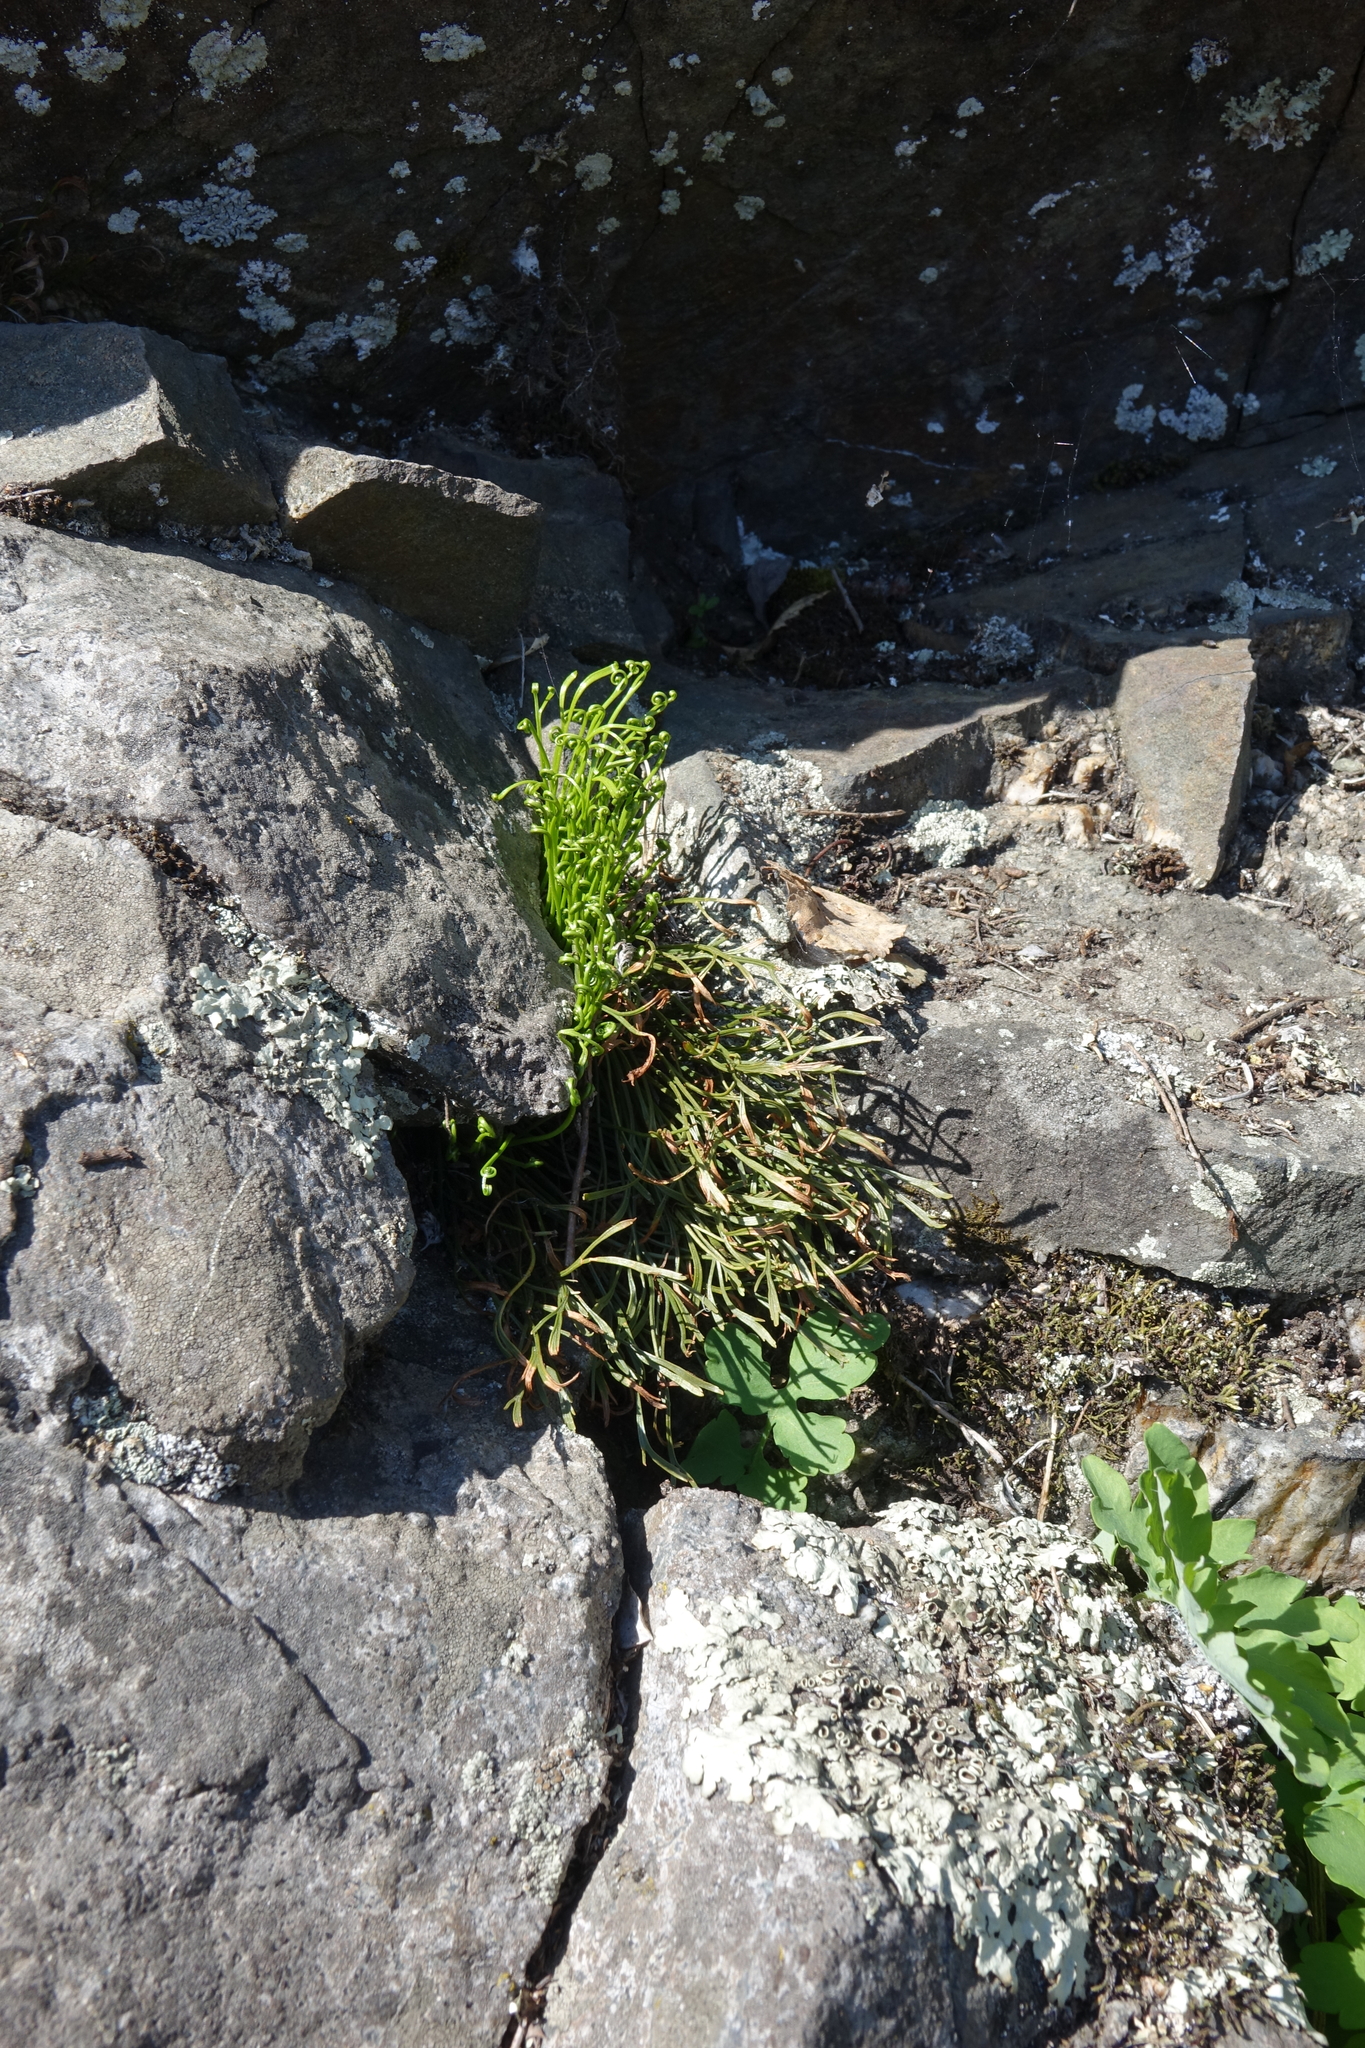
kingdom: Plantae
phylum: Tracheophyta
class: Polypodiopsida
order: Polypodiales
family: Aspleniaceae
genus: Asplenium
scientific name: Asplenium septentrionale
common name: Forked spleenwort
